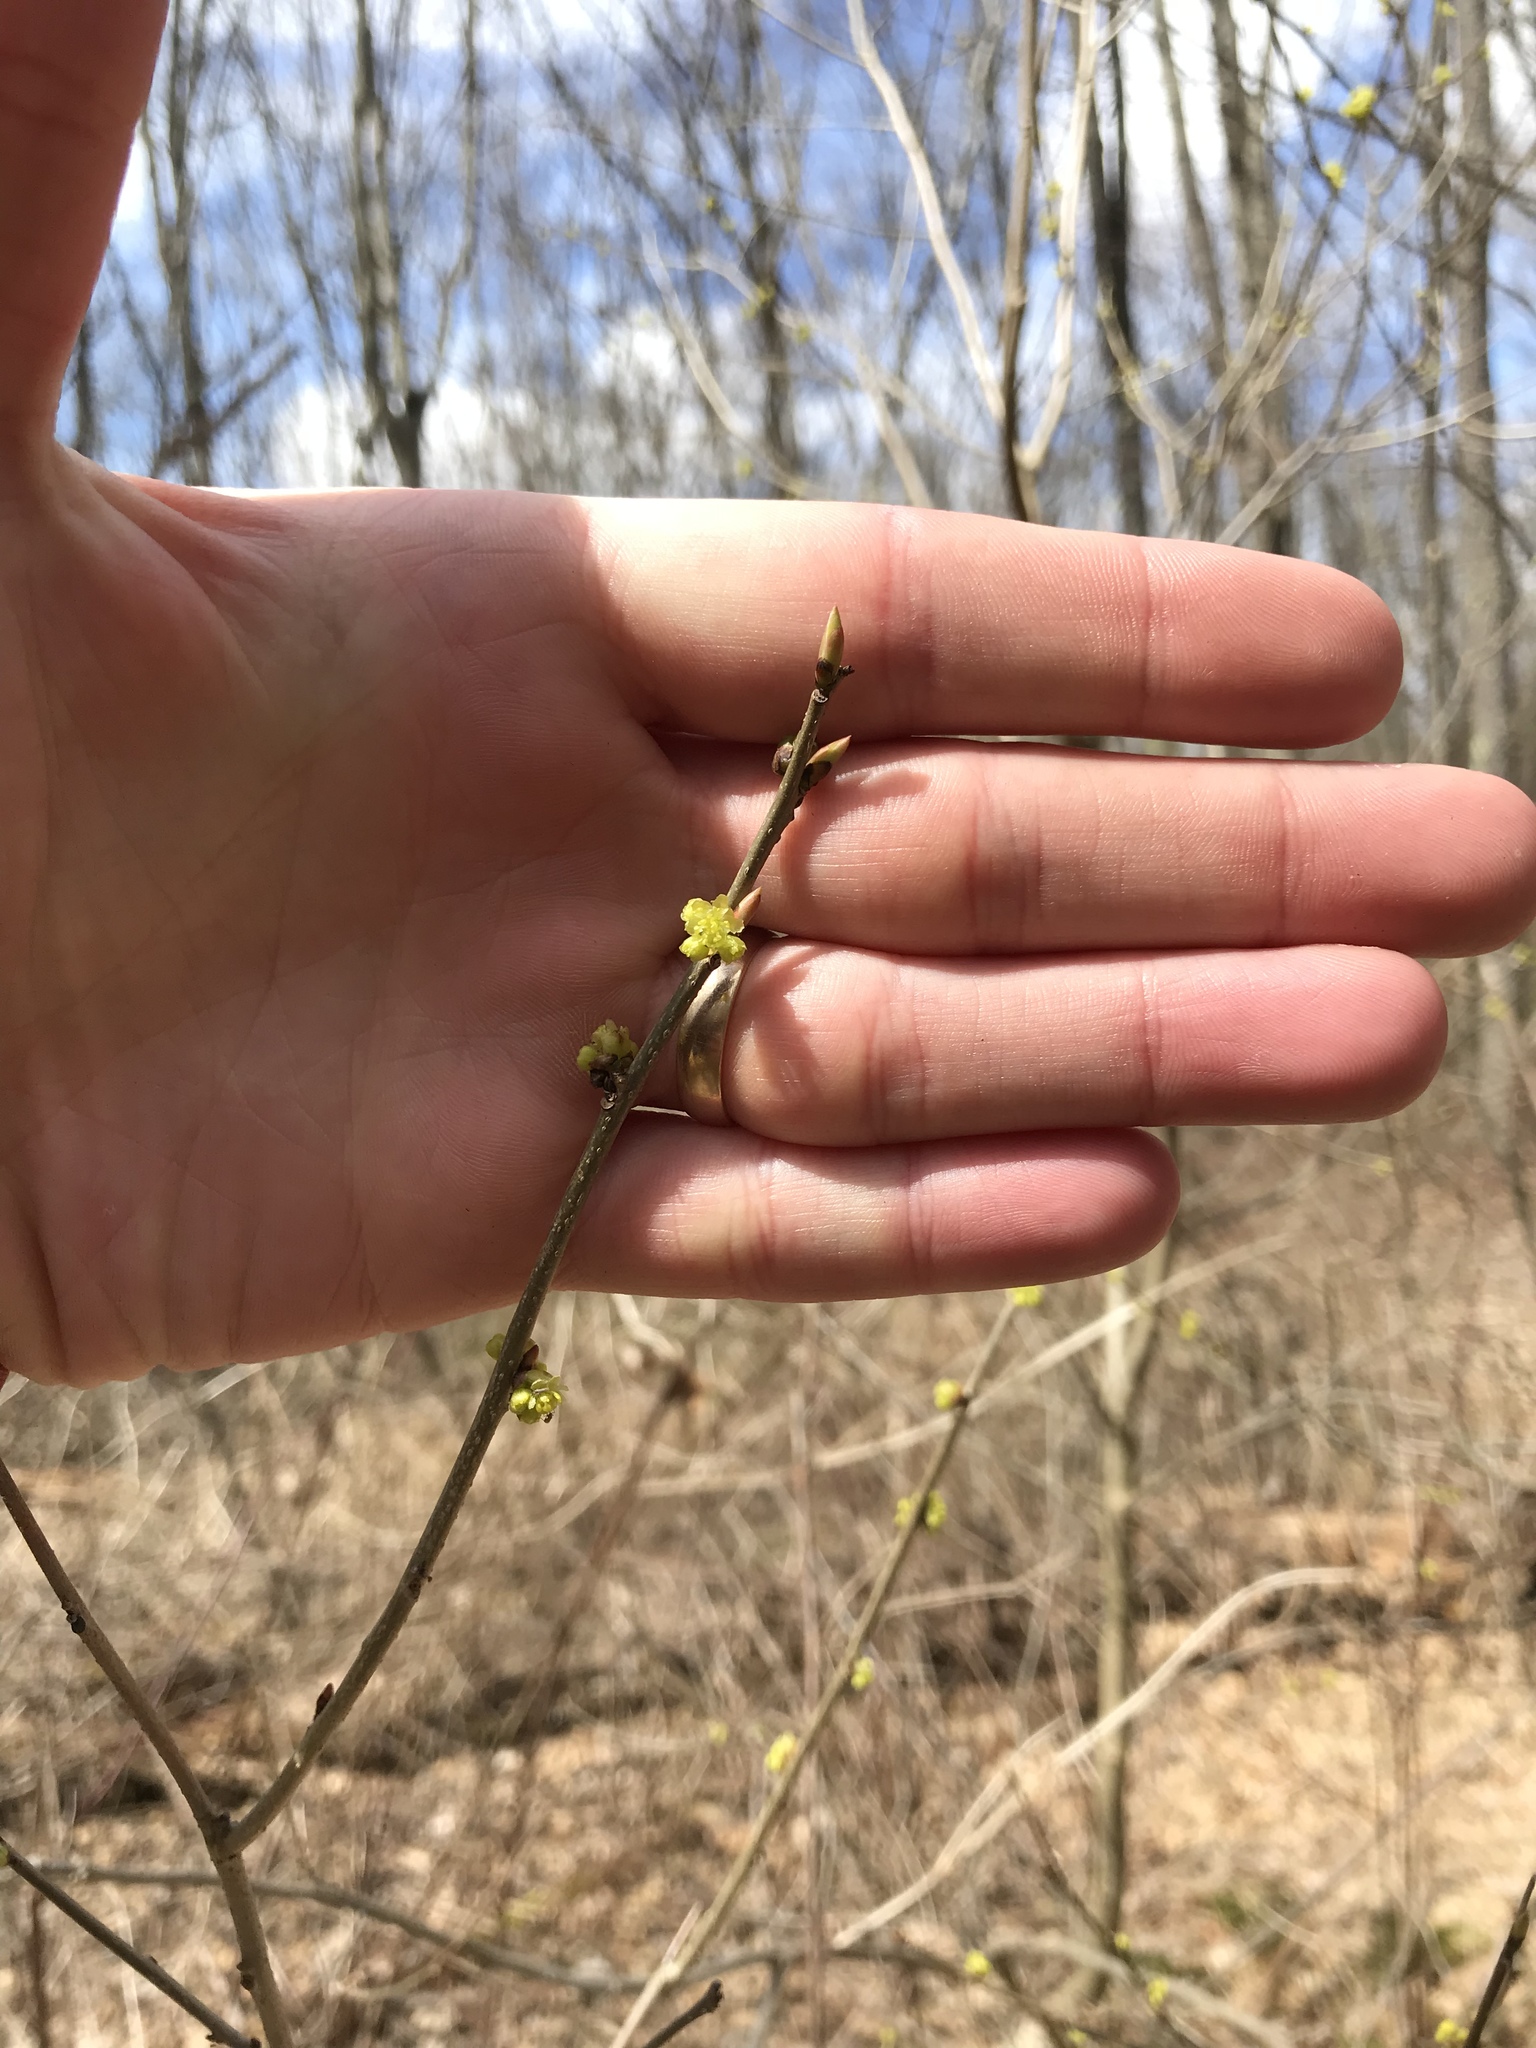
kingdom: Plantae
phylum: Tracheophyta
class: Magnoliopsida
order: Laurales
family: Lauraceae
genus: Lindera
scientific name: Lindera benzoin
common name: Spicebush
